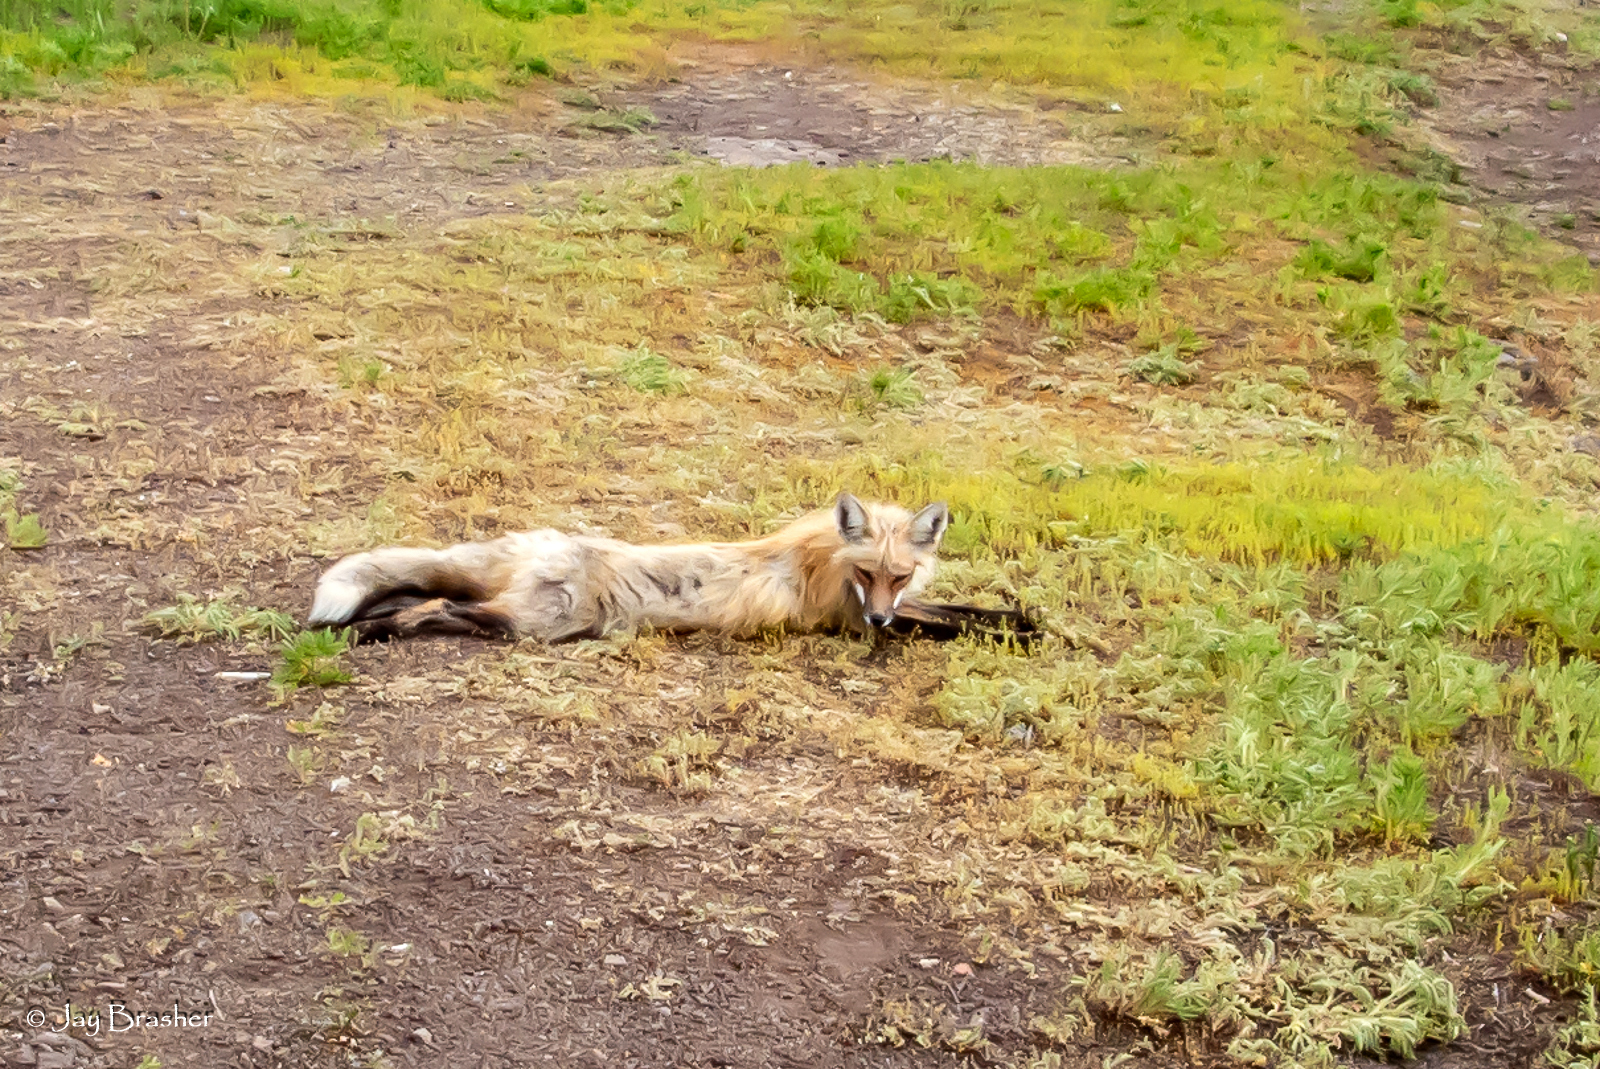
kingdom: Animalia
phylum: Chordata
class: Mammalia
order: Carnivora
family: Canidae
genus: Vulpes
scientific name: Vulpes vulpes
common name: Red fox
